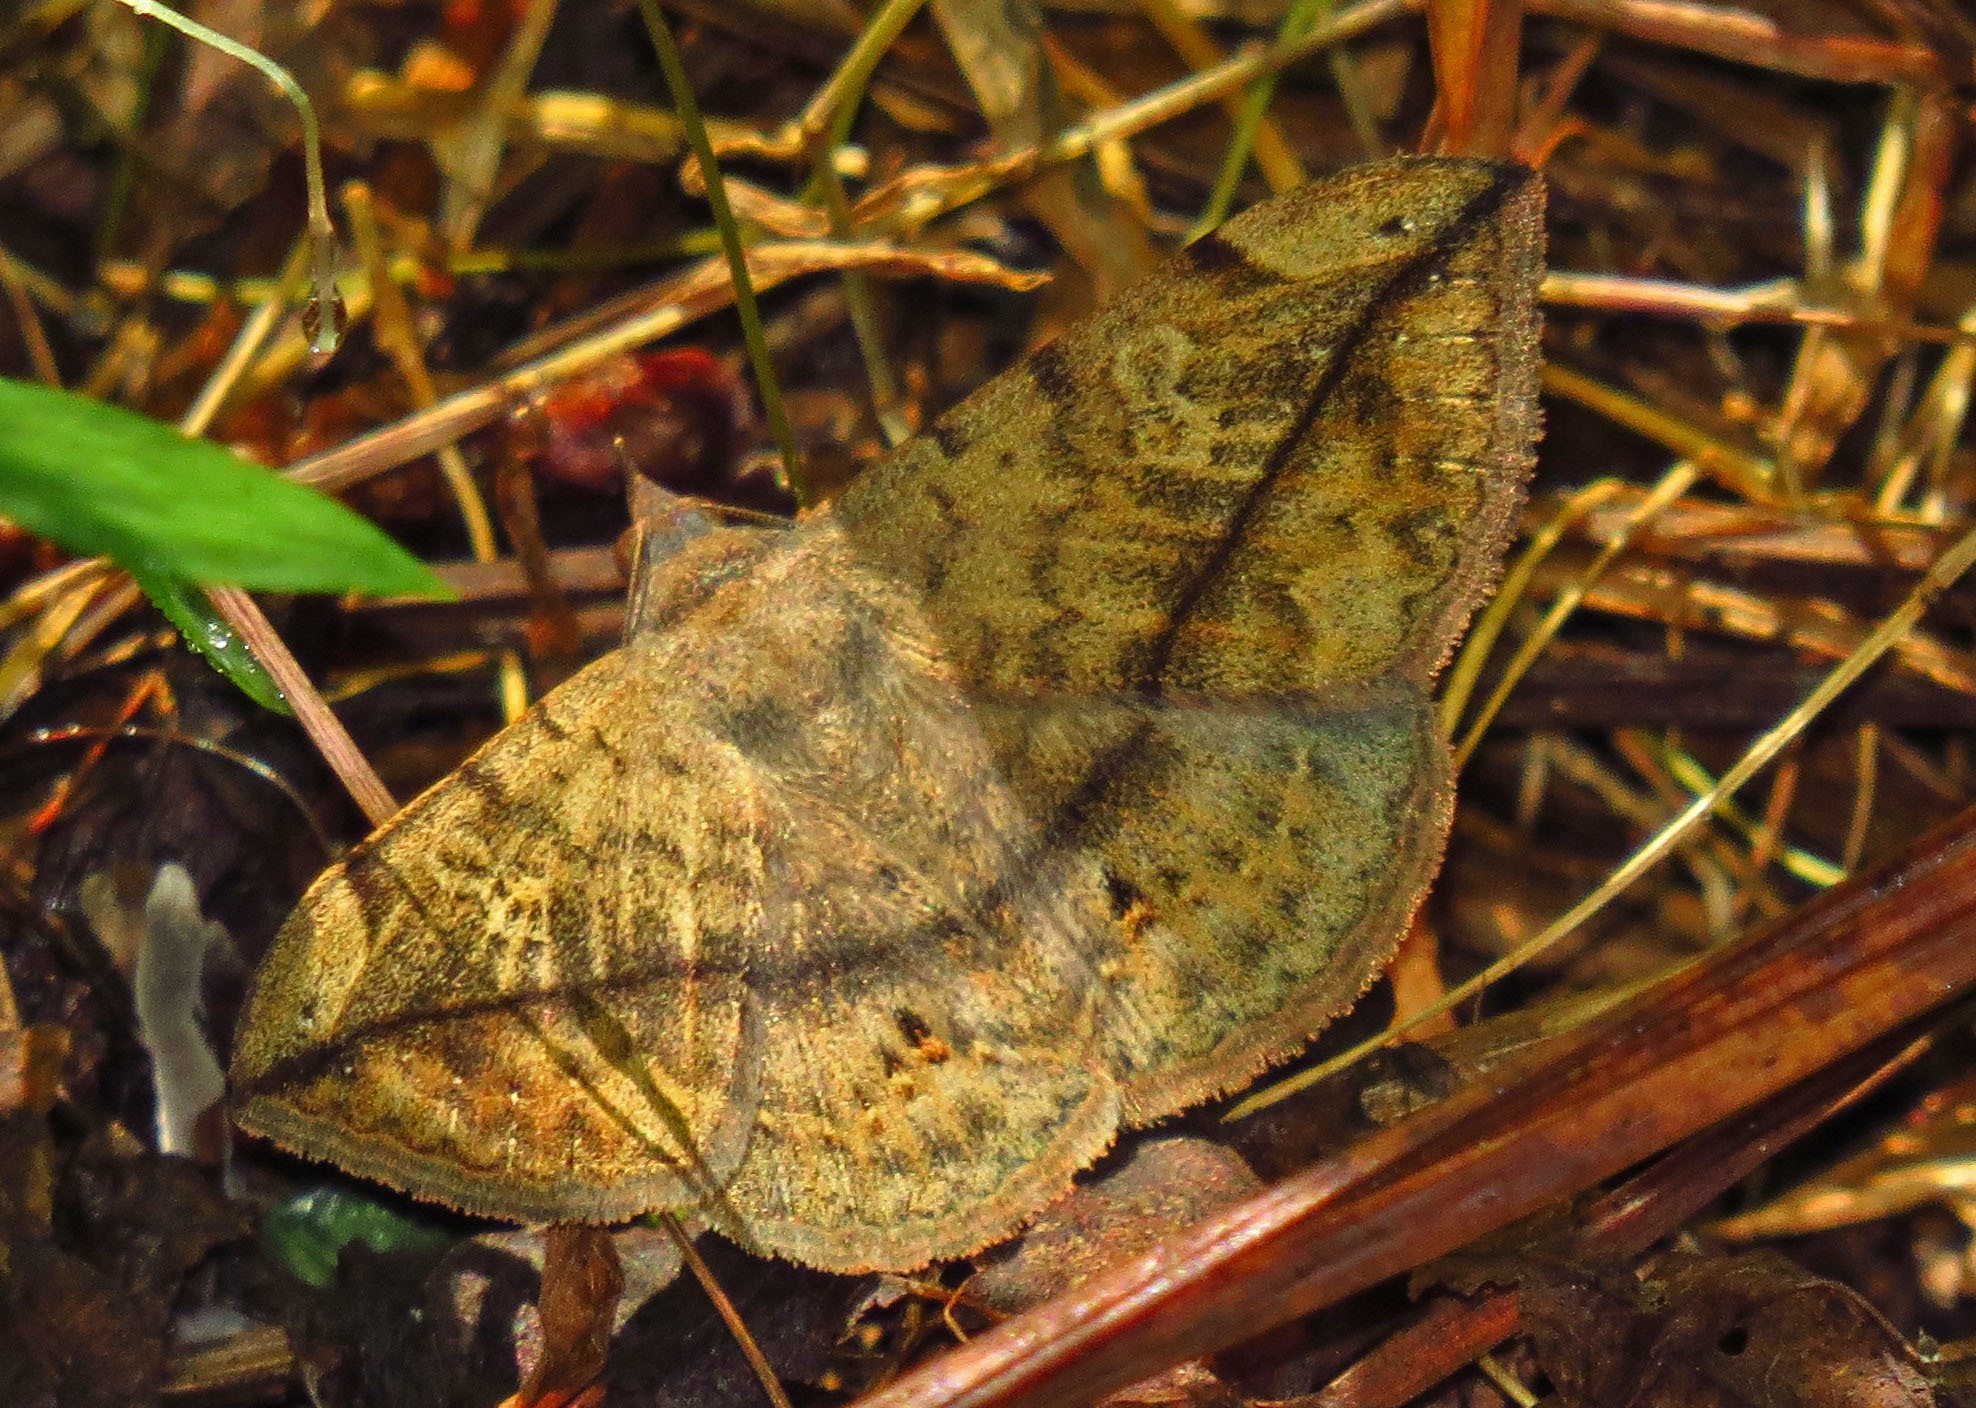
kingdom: Animalia
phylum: Arthropoda
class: Insecta
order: Lepidoptera
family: Erebidae
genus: Anticarsia
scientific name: Anticarsia gemmatalis
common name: Cutworm moth
